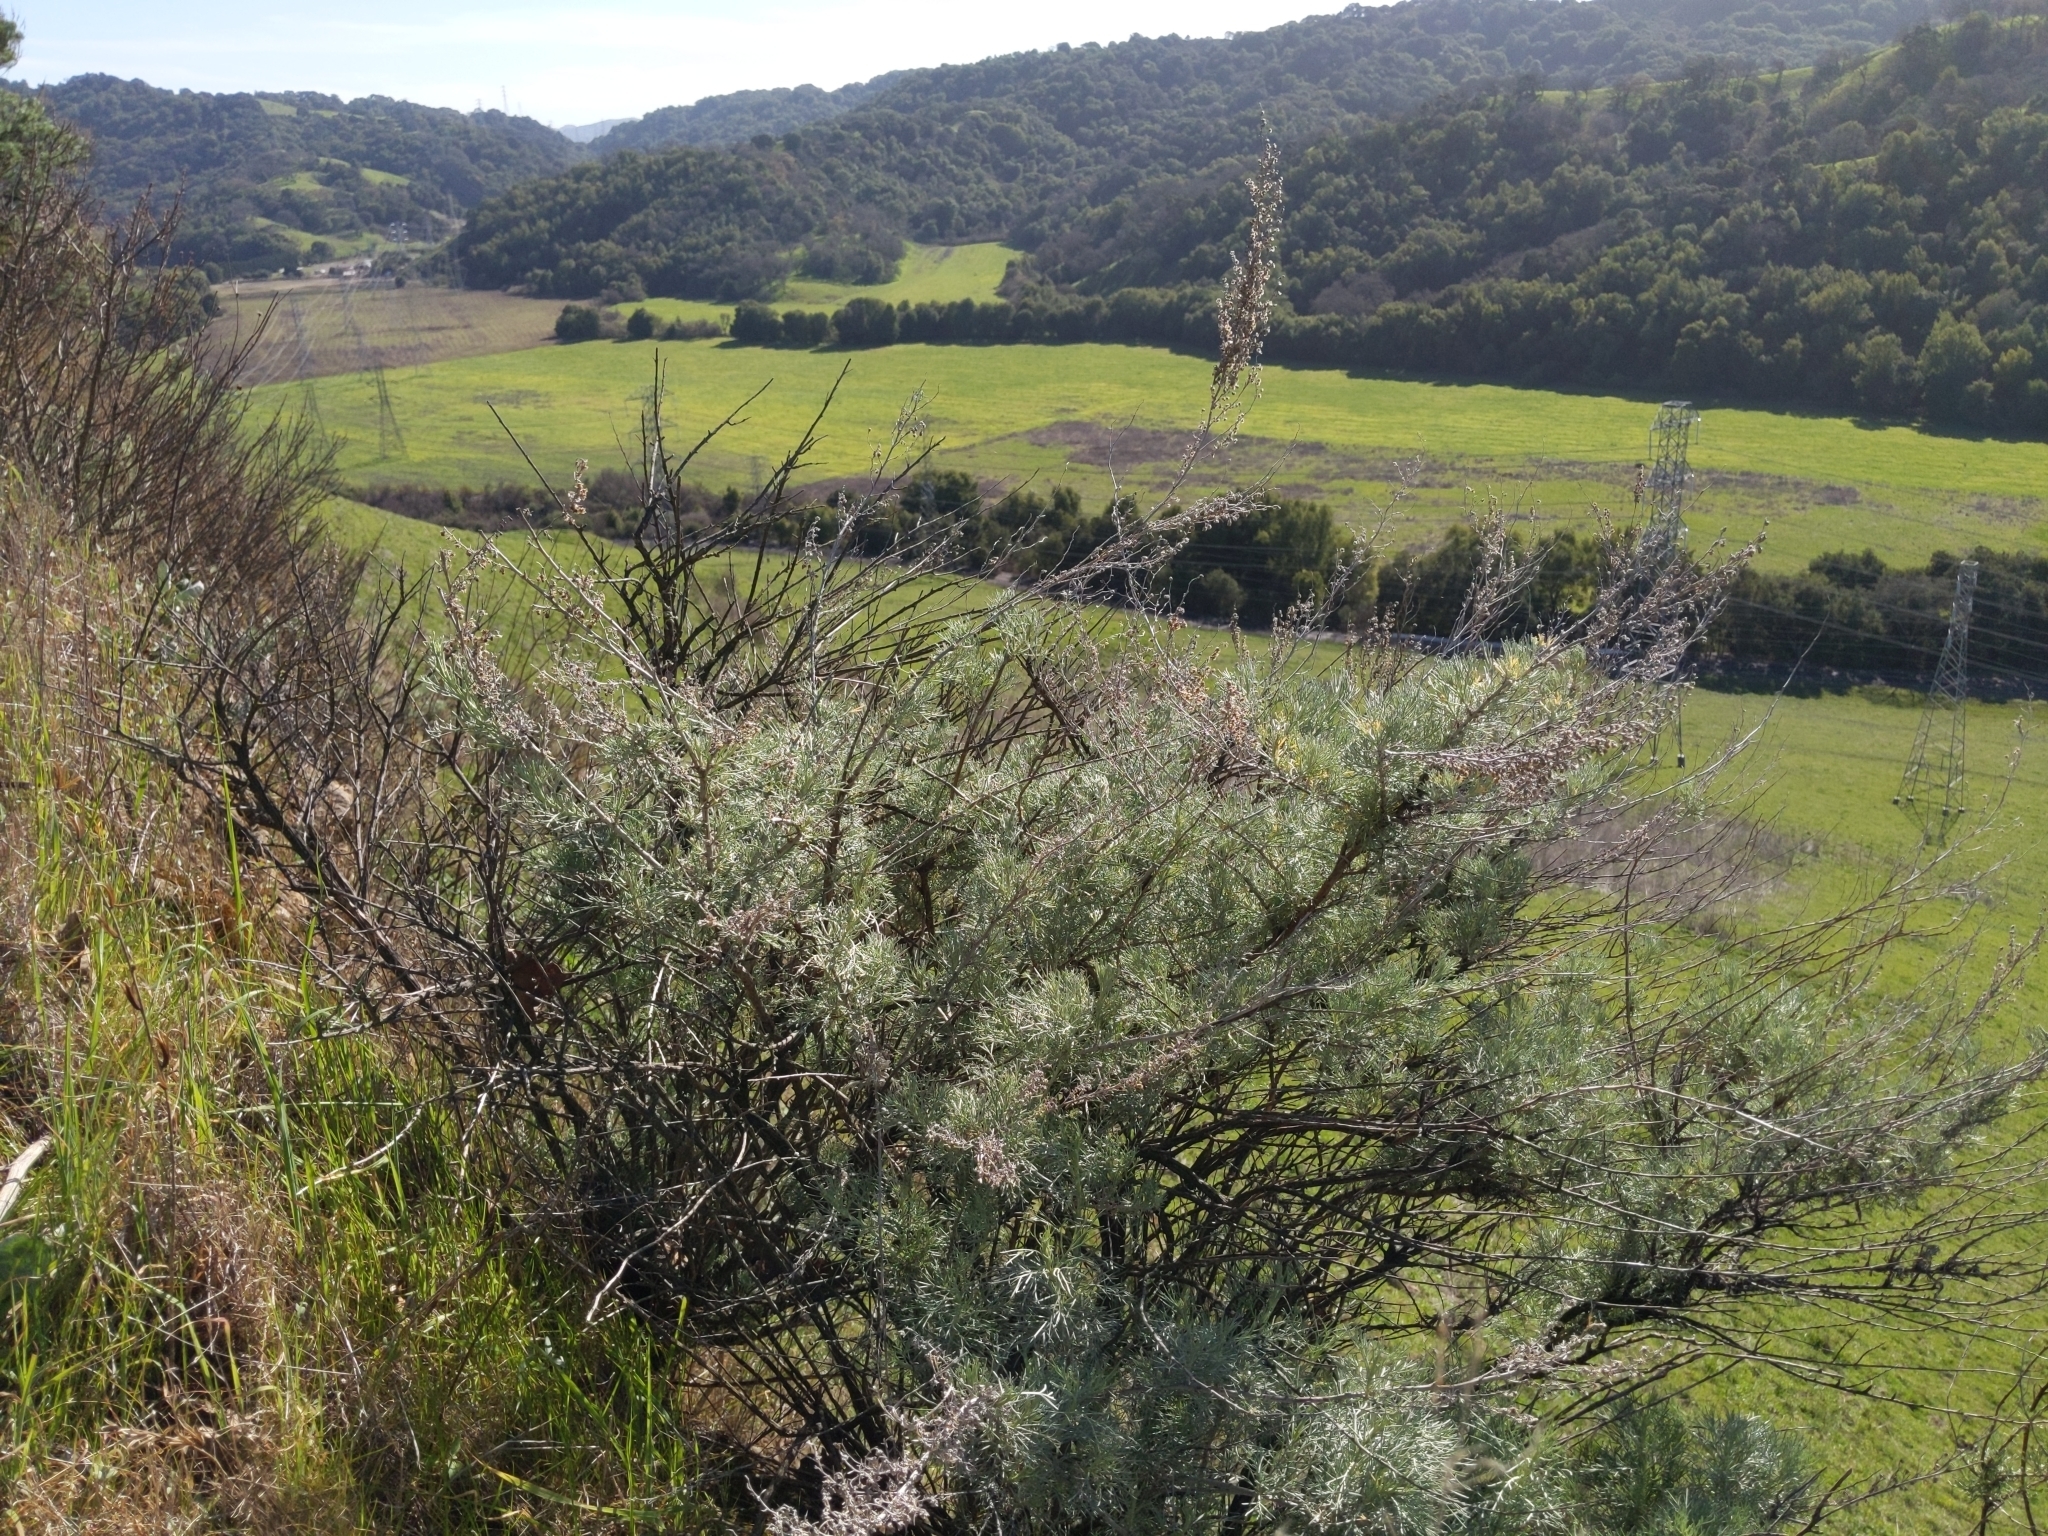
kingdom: Plantae
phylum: Tracheophyta
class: Magnoliopsida
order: Asterales
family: Asteraceae
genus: Artemisia
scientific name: Artemisia californica
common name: California sagebrush
